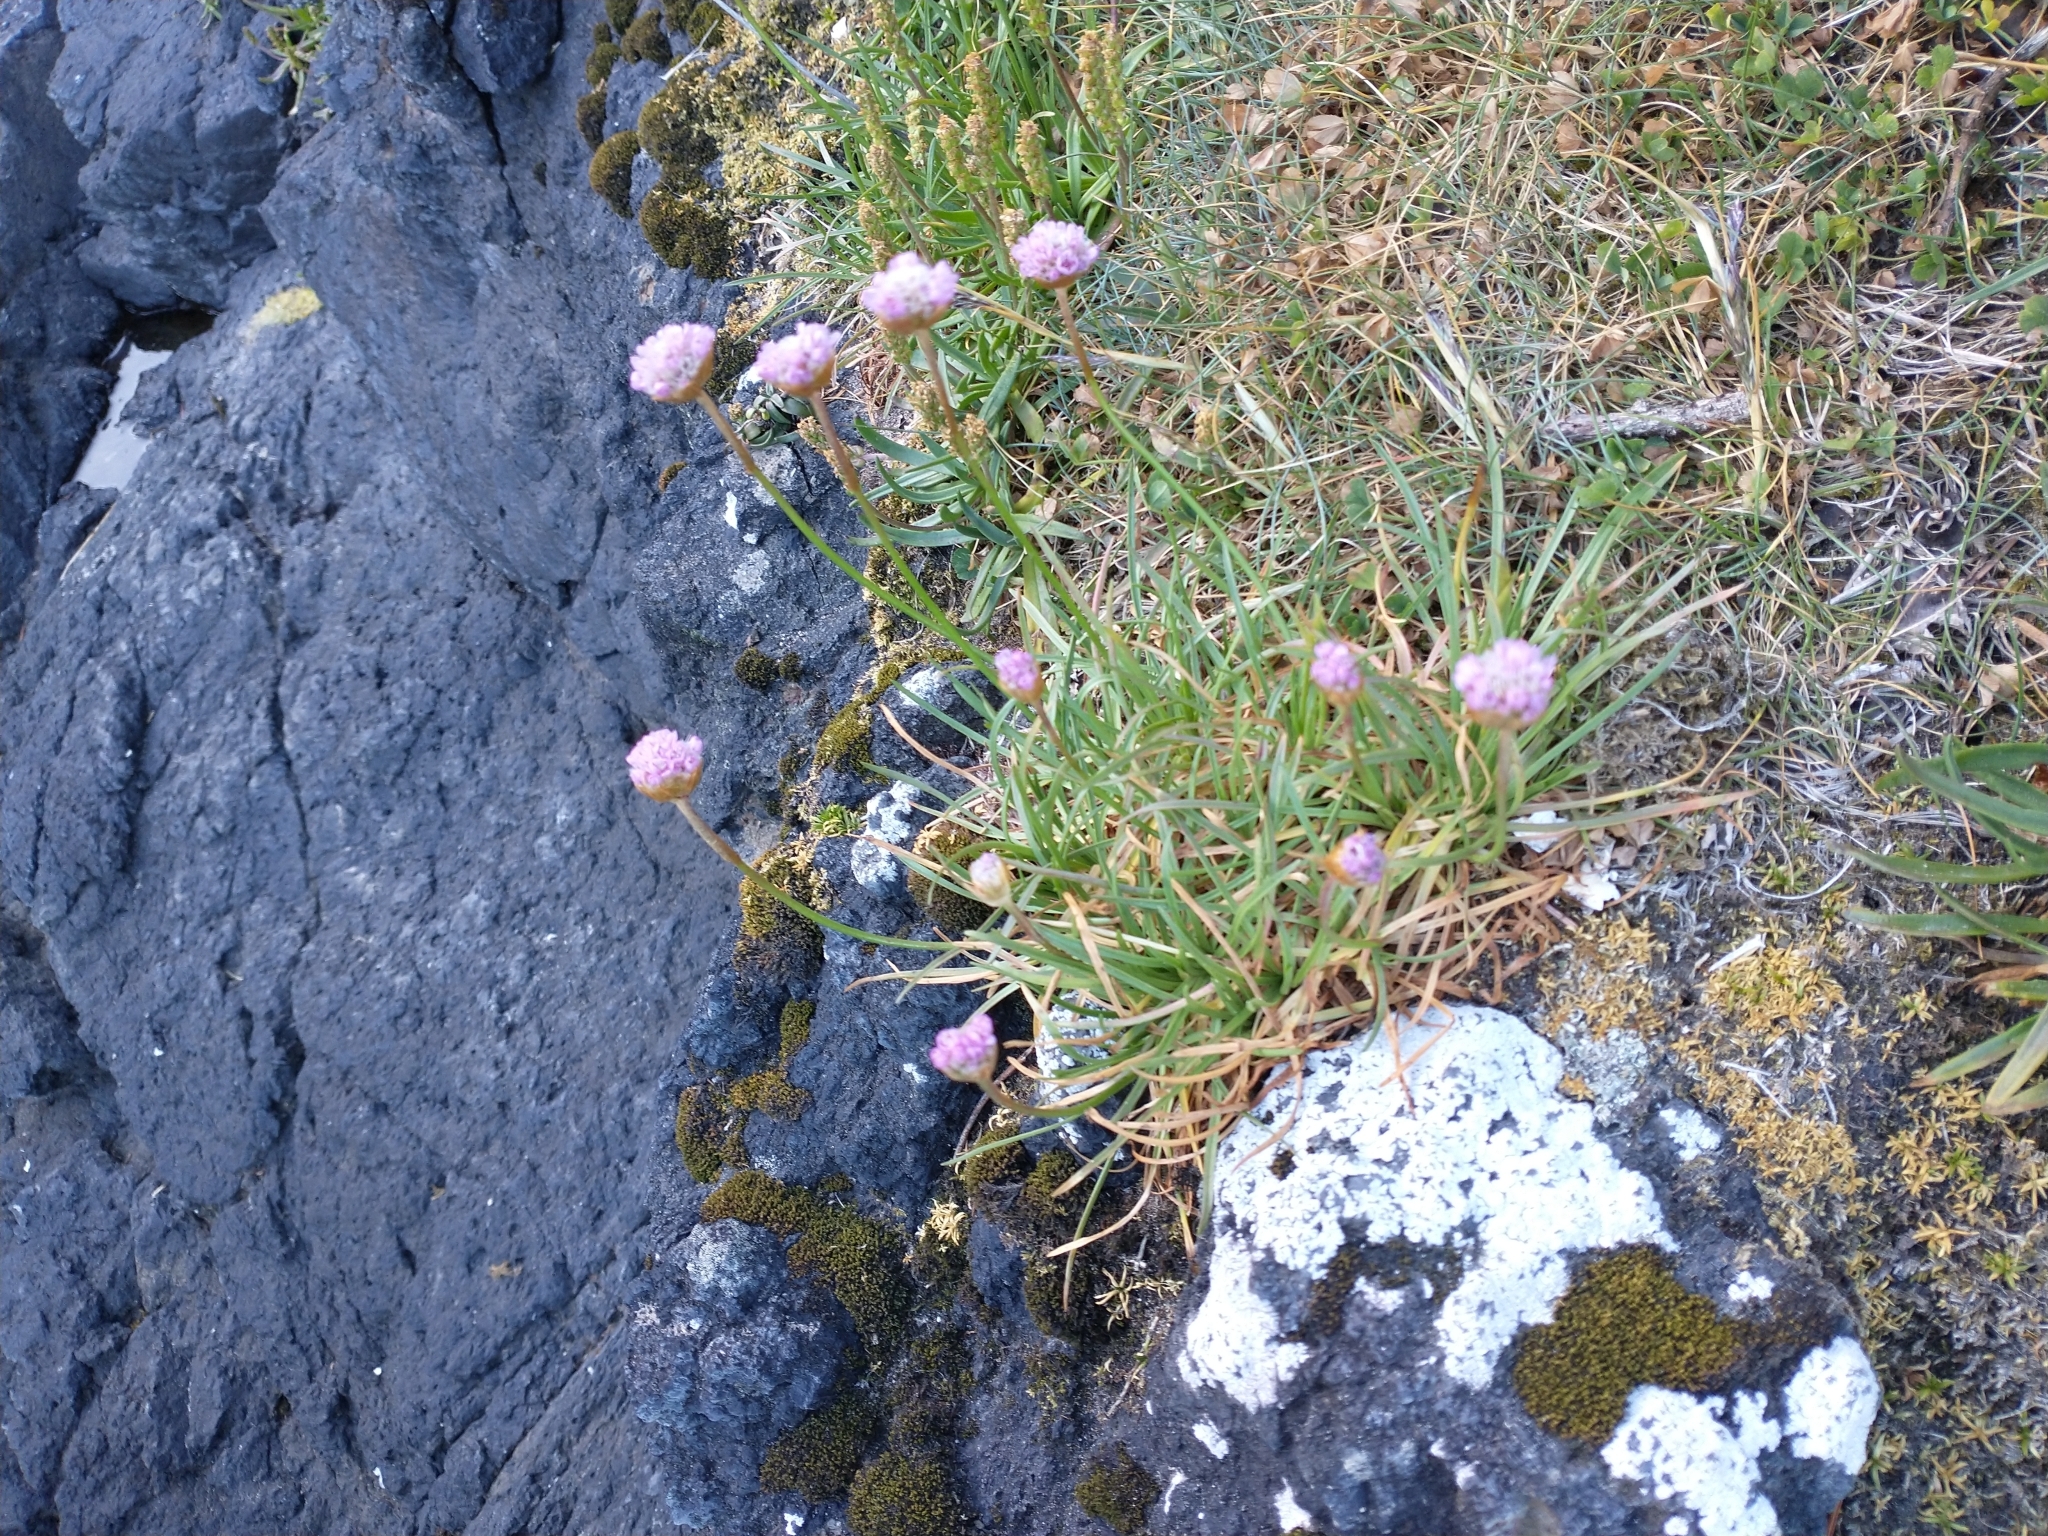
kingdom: Plantae
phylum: Tracheophyta
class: Magnoliopsida
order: Caryophyllales
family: Plumbaginaceae
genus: Armeria
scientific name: Armeria maritima
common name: Thrift
